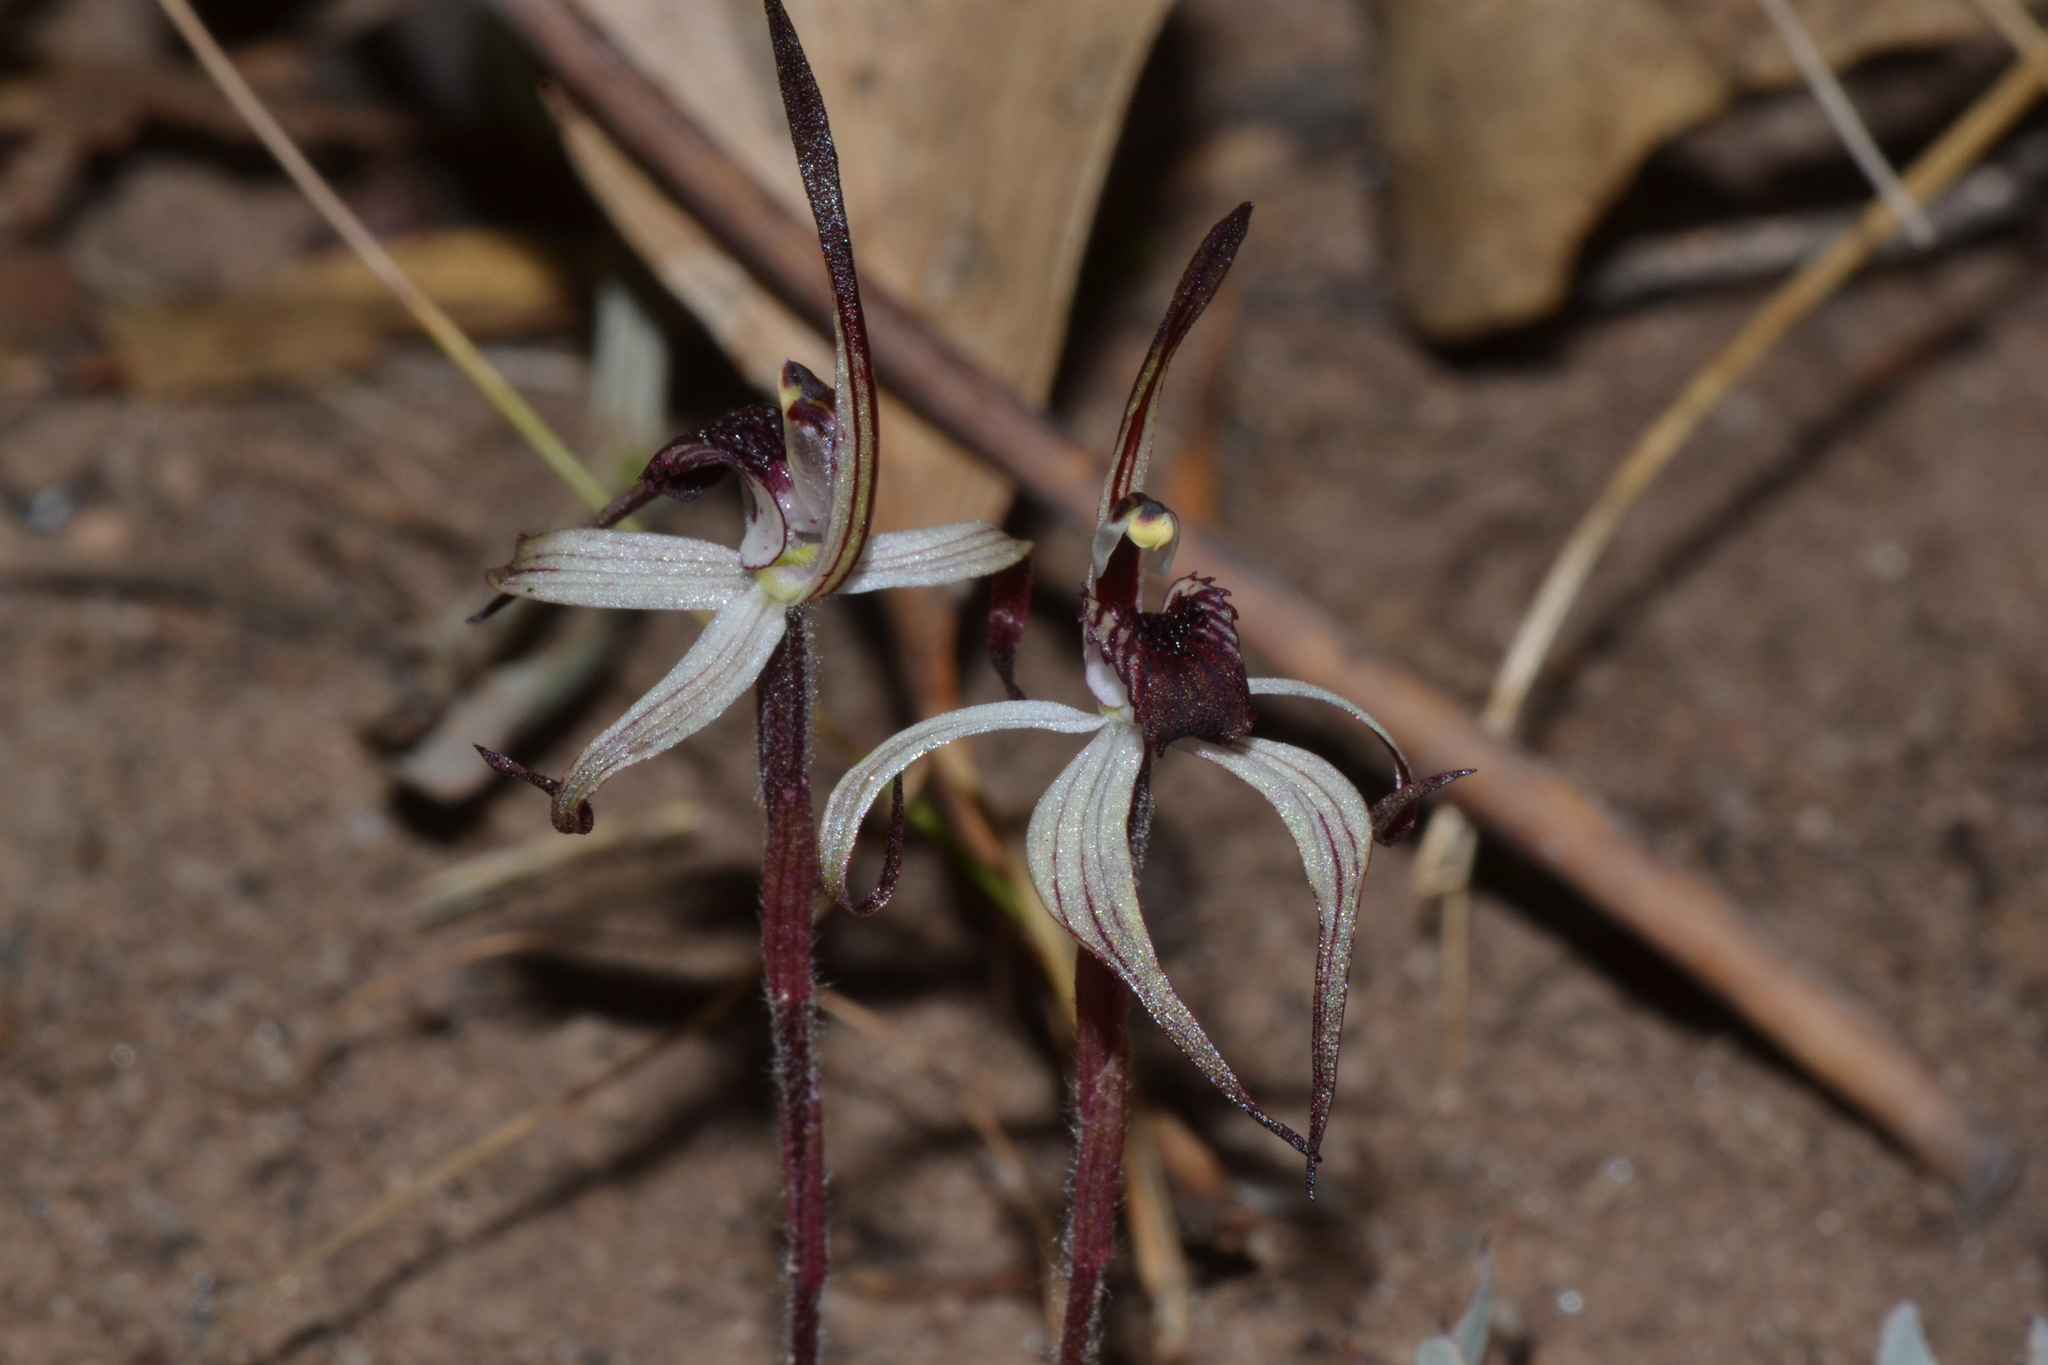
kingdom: Plantae
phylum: Tracheophyta
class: Liliopsida
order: Asparagales
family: Orchidaceae
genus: Caladenia
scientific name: Caladenia drummondii
